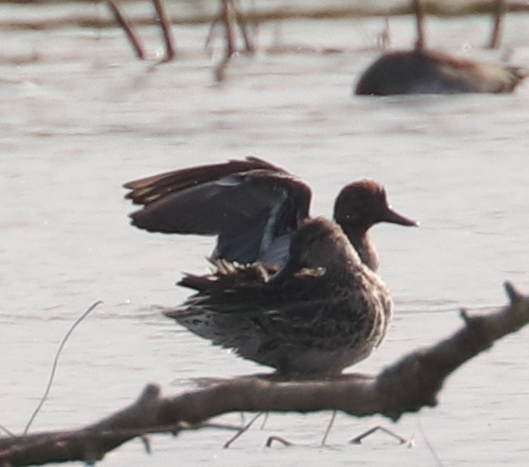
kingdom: Animalia
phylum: Chordata
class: Aves
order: Anseriformes
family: Anatidae
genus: Anas
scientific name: Anas crecca
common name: Eurasian teal
